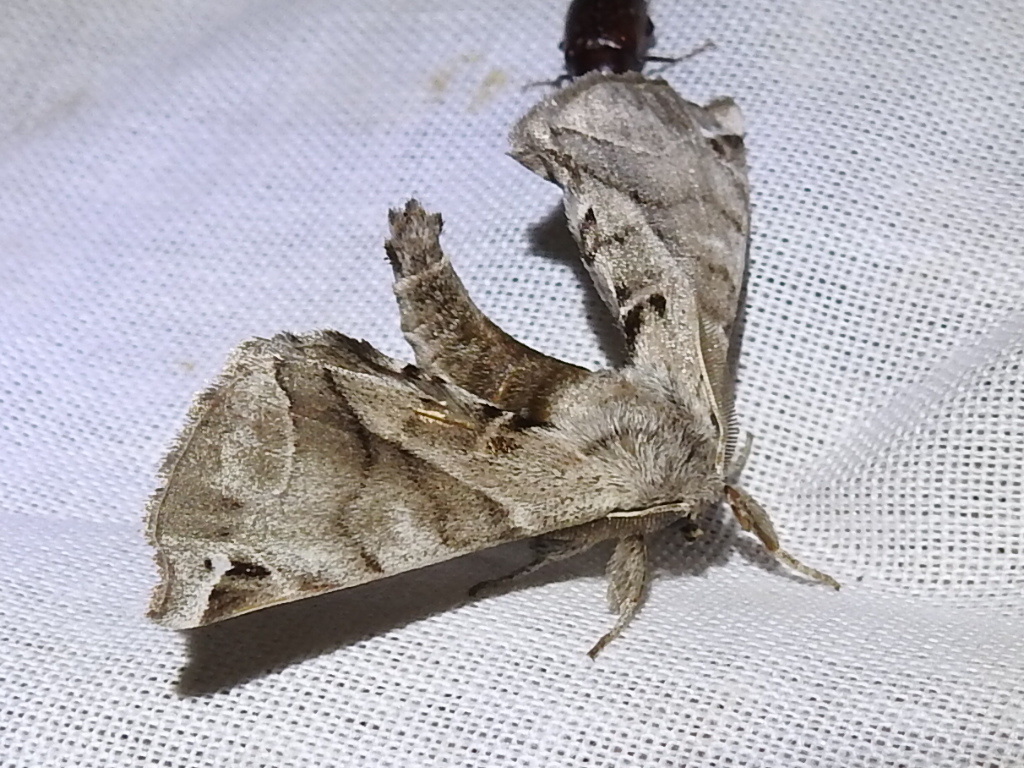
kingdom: Animalia
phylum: Arthropoda
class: Insecta
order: Lepidoptera
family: Apatelodidae
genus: Hygrochroa
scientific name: Hygrochroa Apatelodes pudefacta
